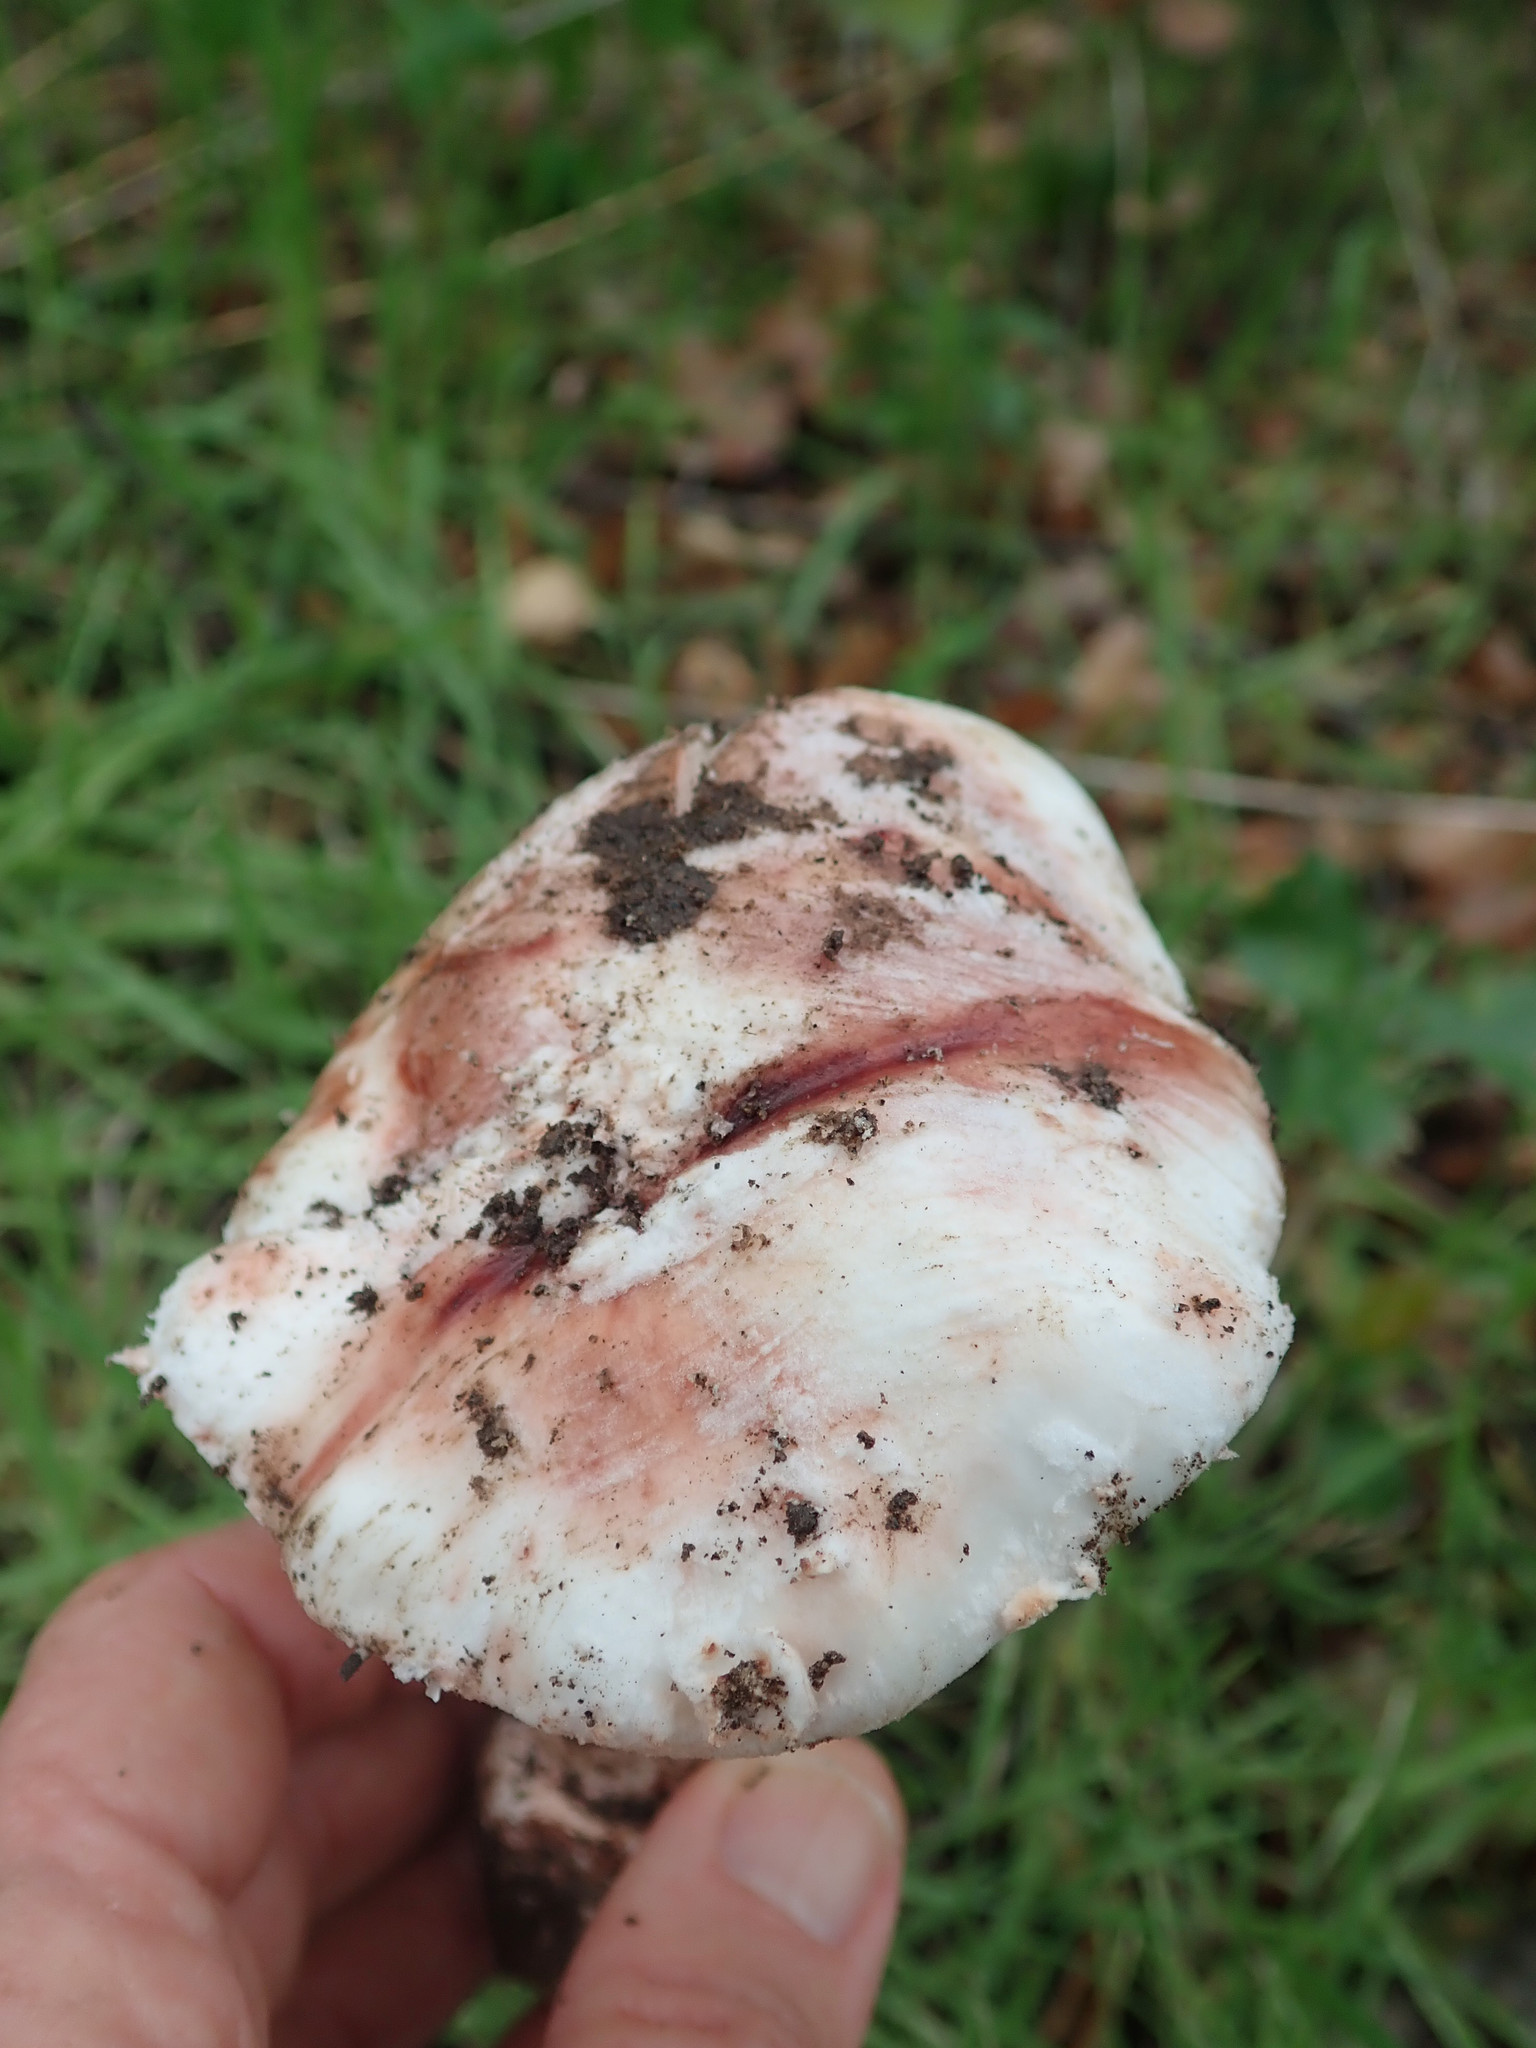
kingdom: Fungi
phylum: Basidiomycota
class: Agaricomycetes
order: Agaricales
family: Amanitaceae
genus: Amanita
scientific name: Amanita novinupta
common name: Blushing bride
